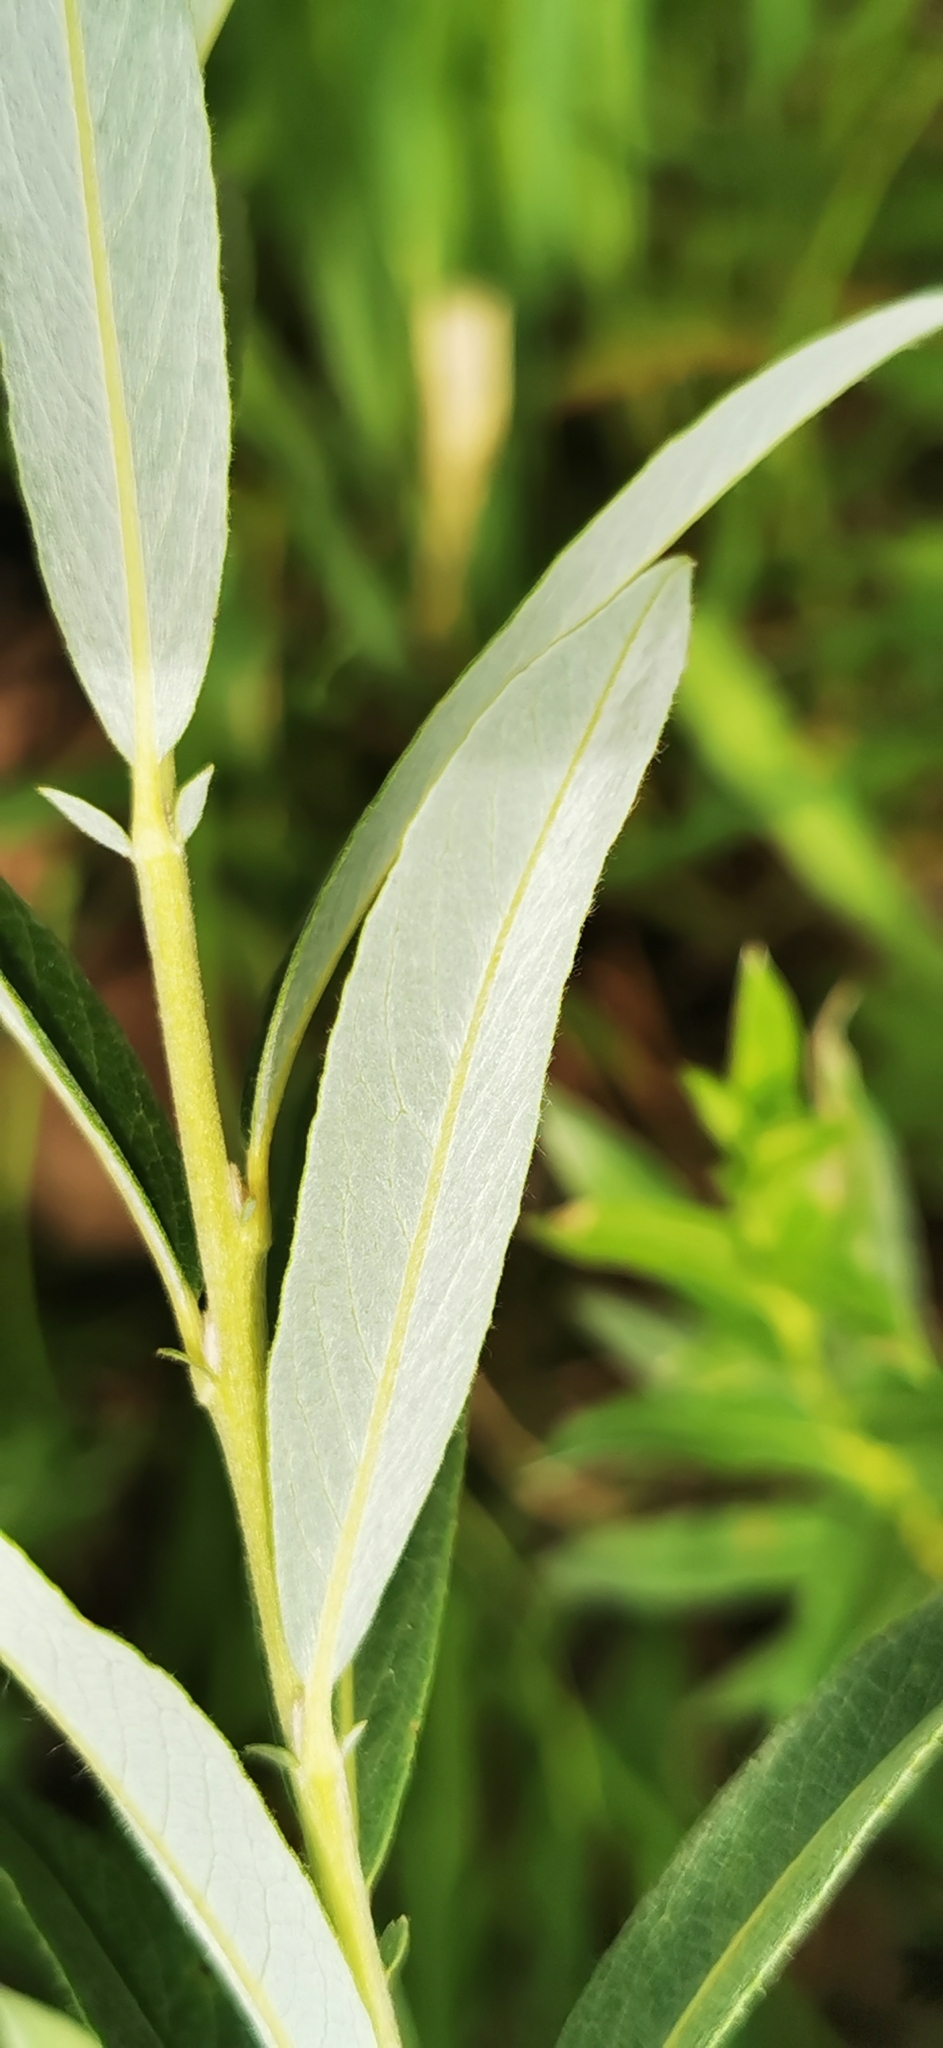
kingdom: Plantae
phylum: Tracheophyta
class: Magnoliopsida
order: Malpighiales
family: Salicaceae
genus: Salix
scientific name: Salix rosmarinifolia
